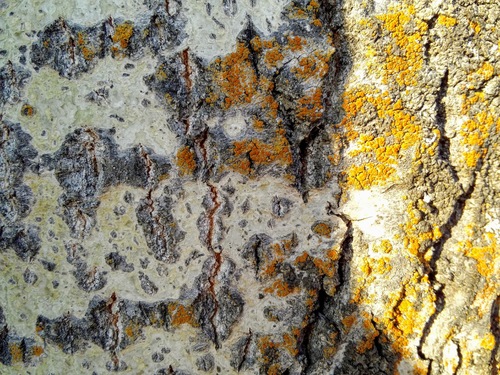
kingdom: Fungi
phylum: Ascomycota
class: Lecanoromycetes
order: Teloschistales
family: Teloschistaceae
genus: Gallowayella
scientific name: Gallowayella weberi
